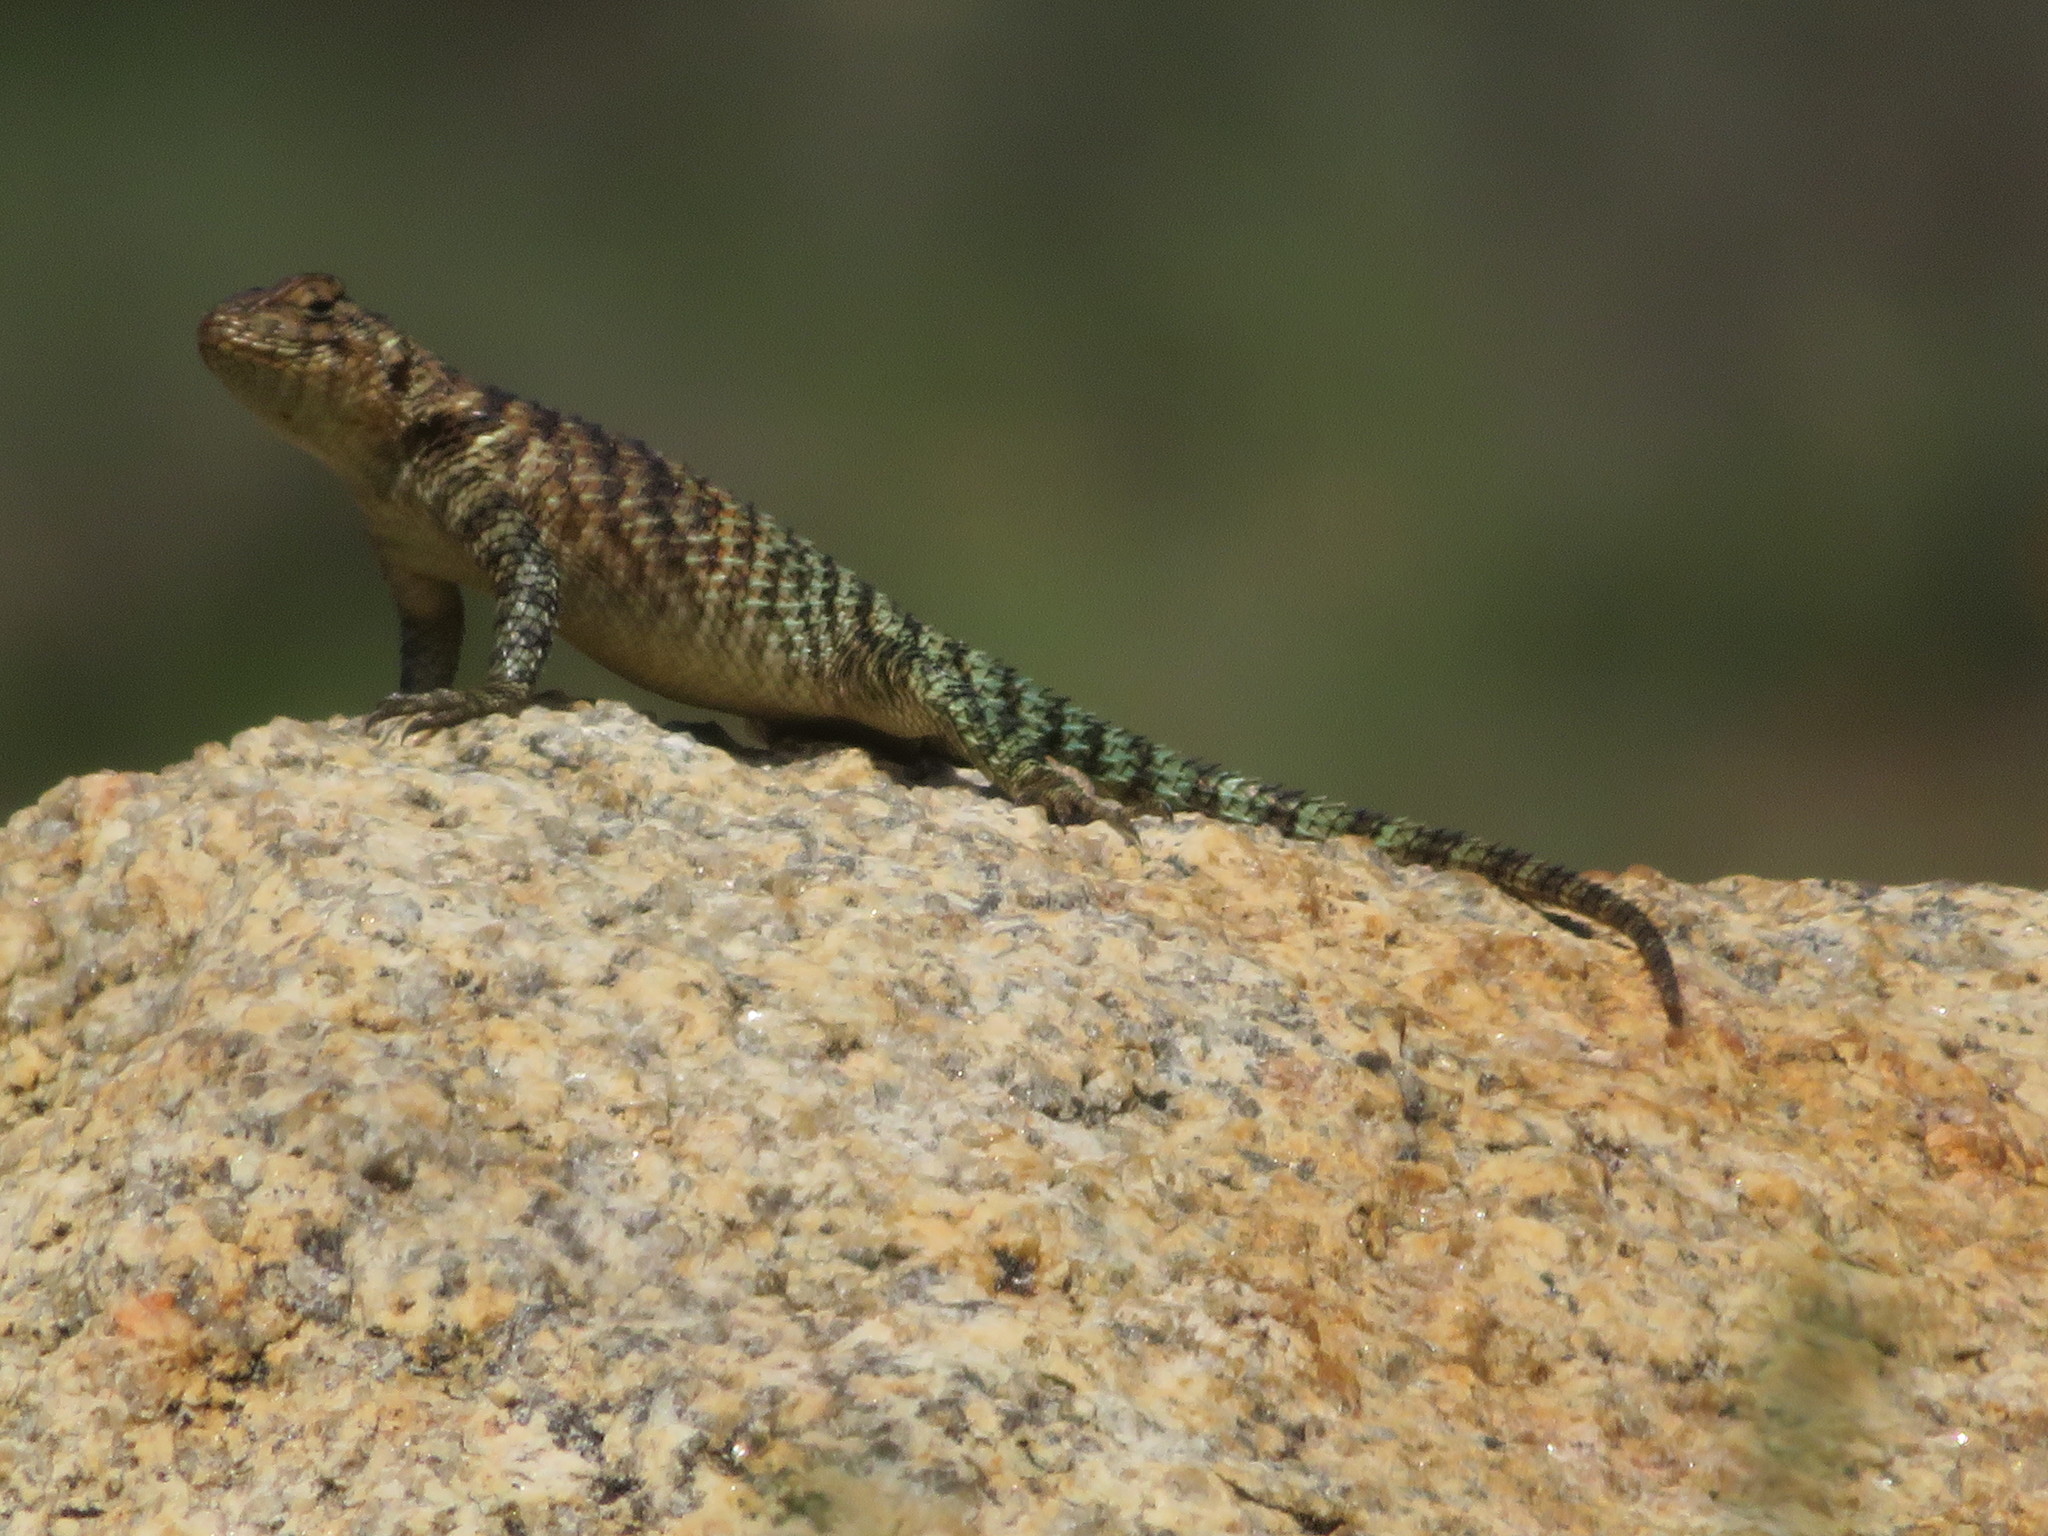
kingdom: Animalia
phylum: Chordata
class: Squamata
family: Phrynosomatidae
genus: Sceloporus
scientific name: Sceloporus orcutti
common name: Granite spiny lizard
